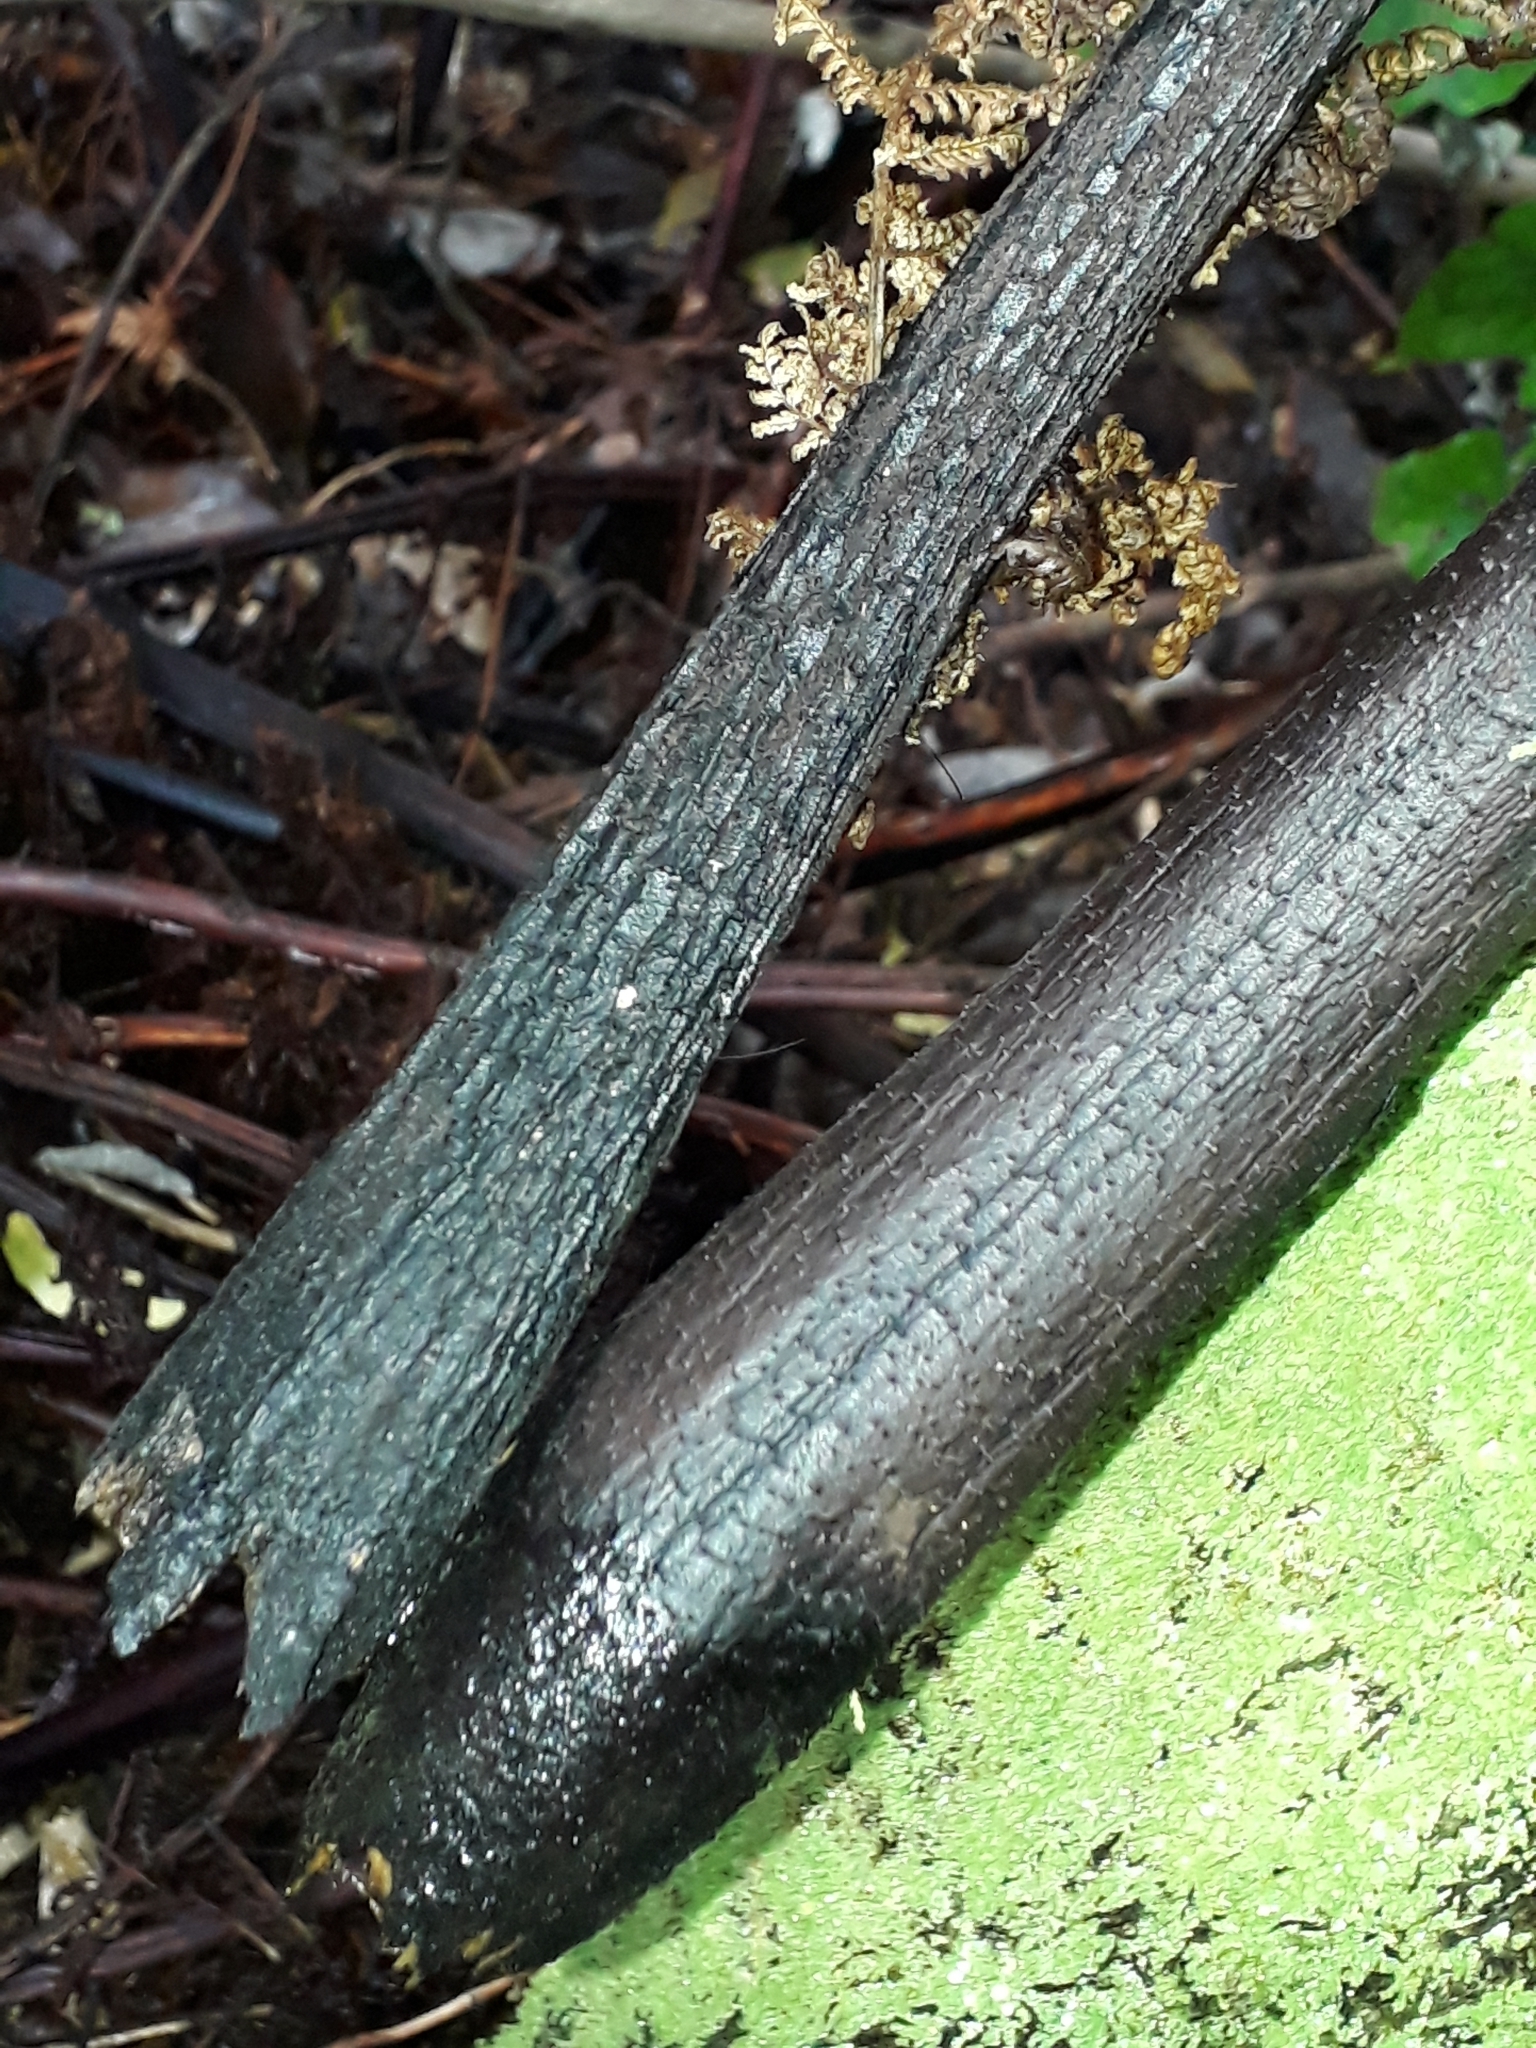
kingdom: Plantae
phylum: Tracheophyta
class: Polypodiopsida
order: Cyatheales
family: Cyatheaceae
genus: Cyathea
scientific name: Cyathea cunninghamii
